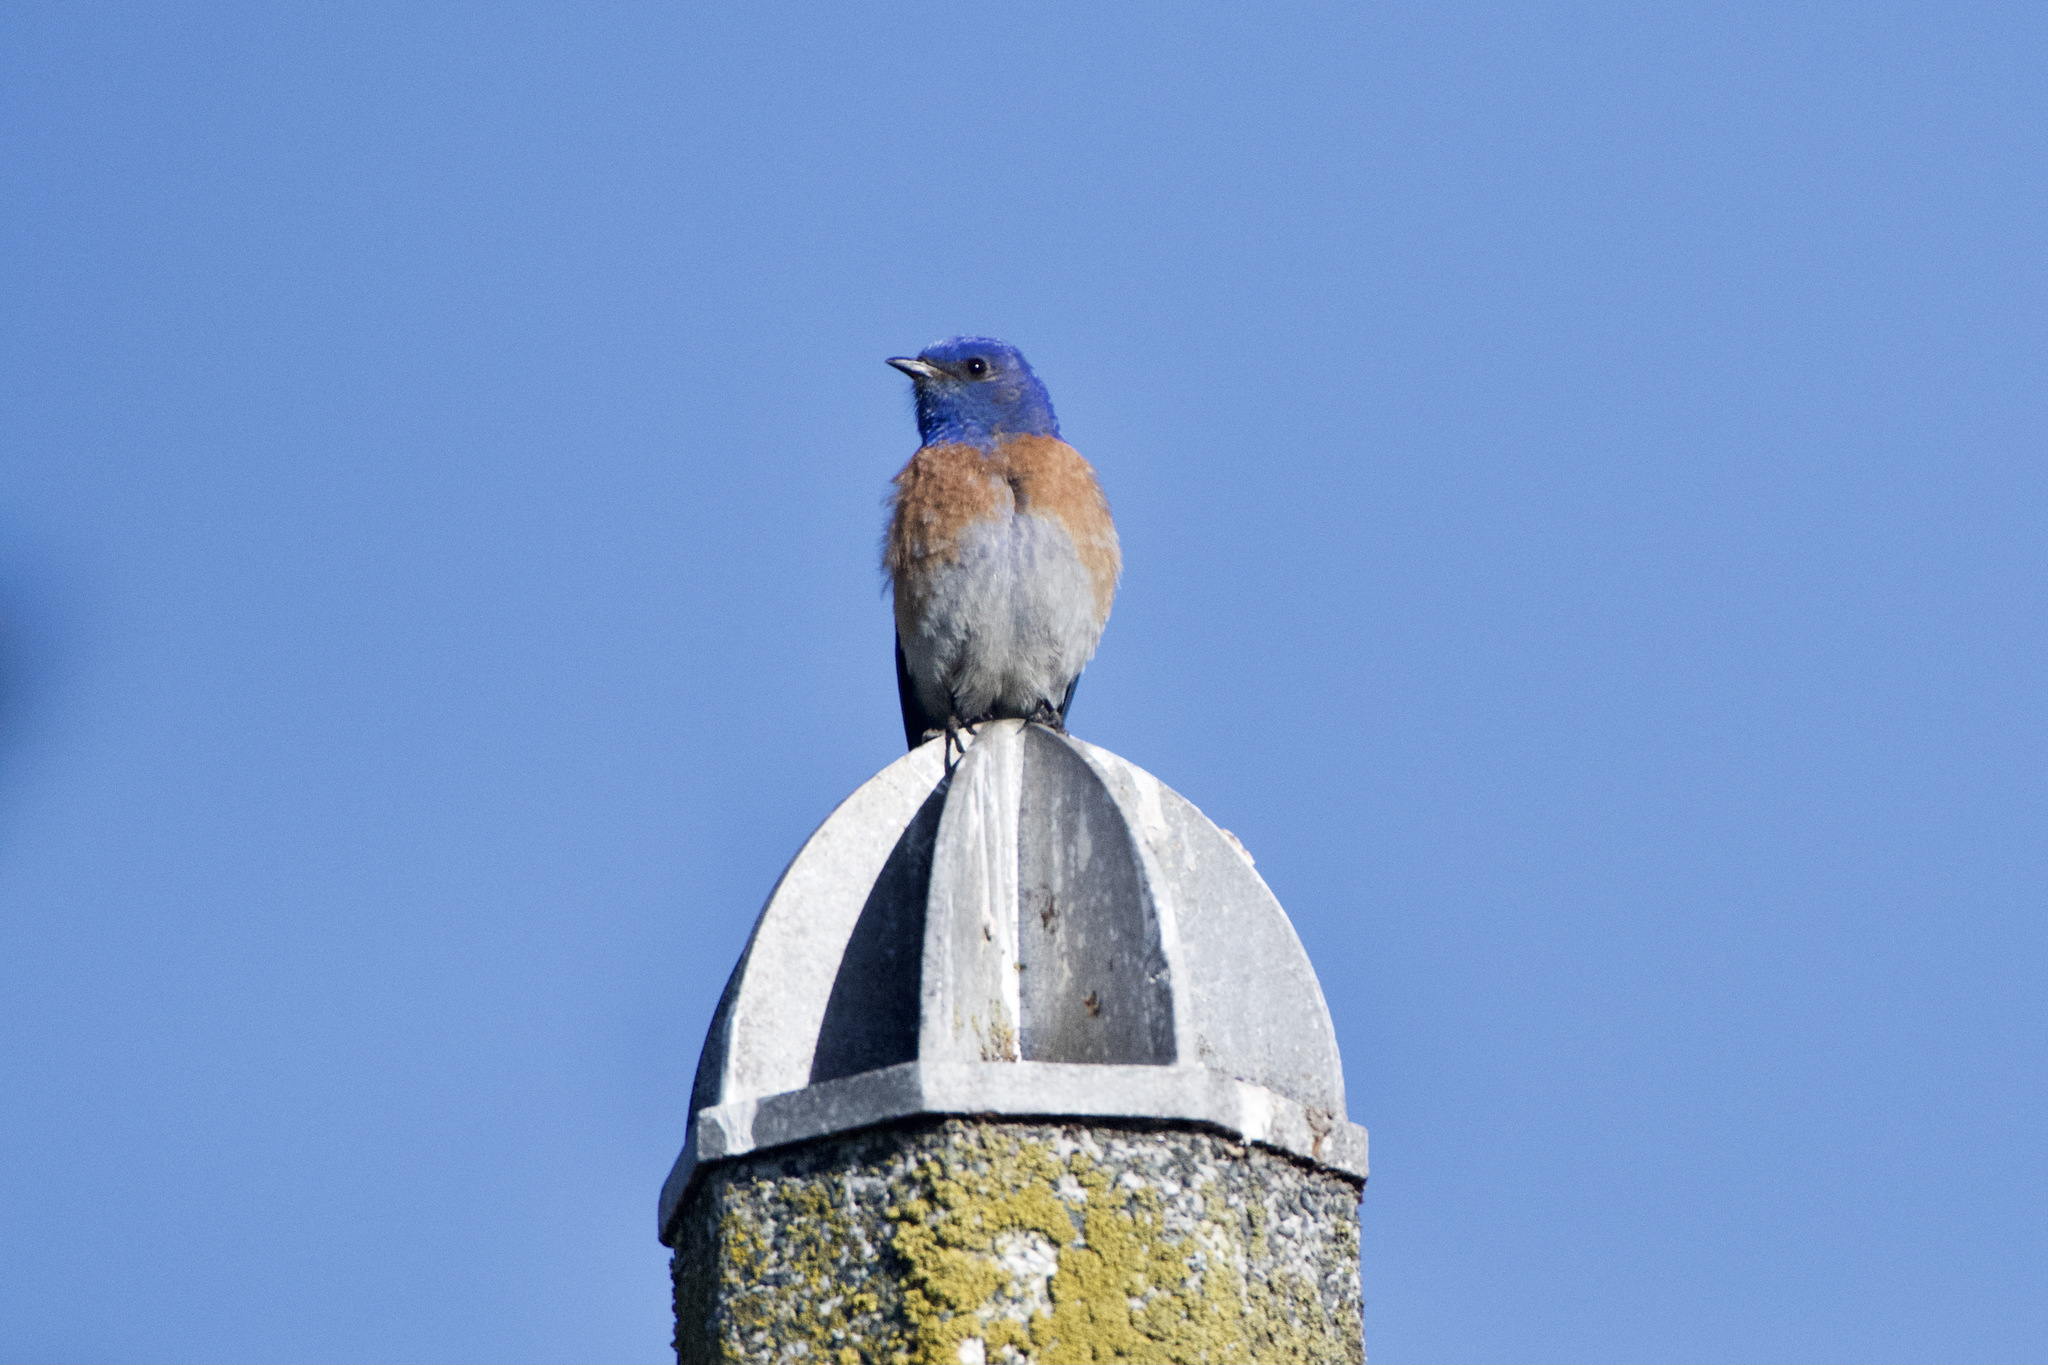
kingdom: Animalia
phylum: Chordata
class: Aves
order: Passeriformes
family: Turdidae
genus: Sialia
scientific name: Sialia mexicana
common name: Western bluebird
